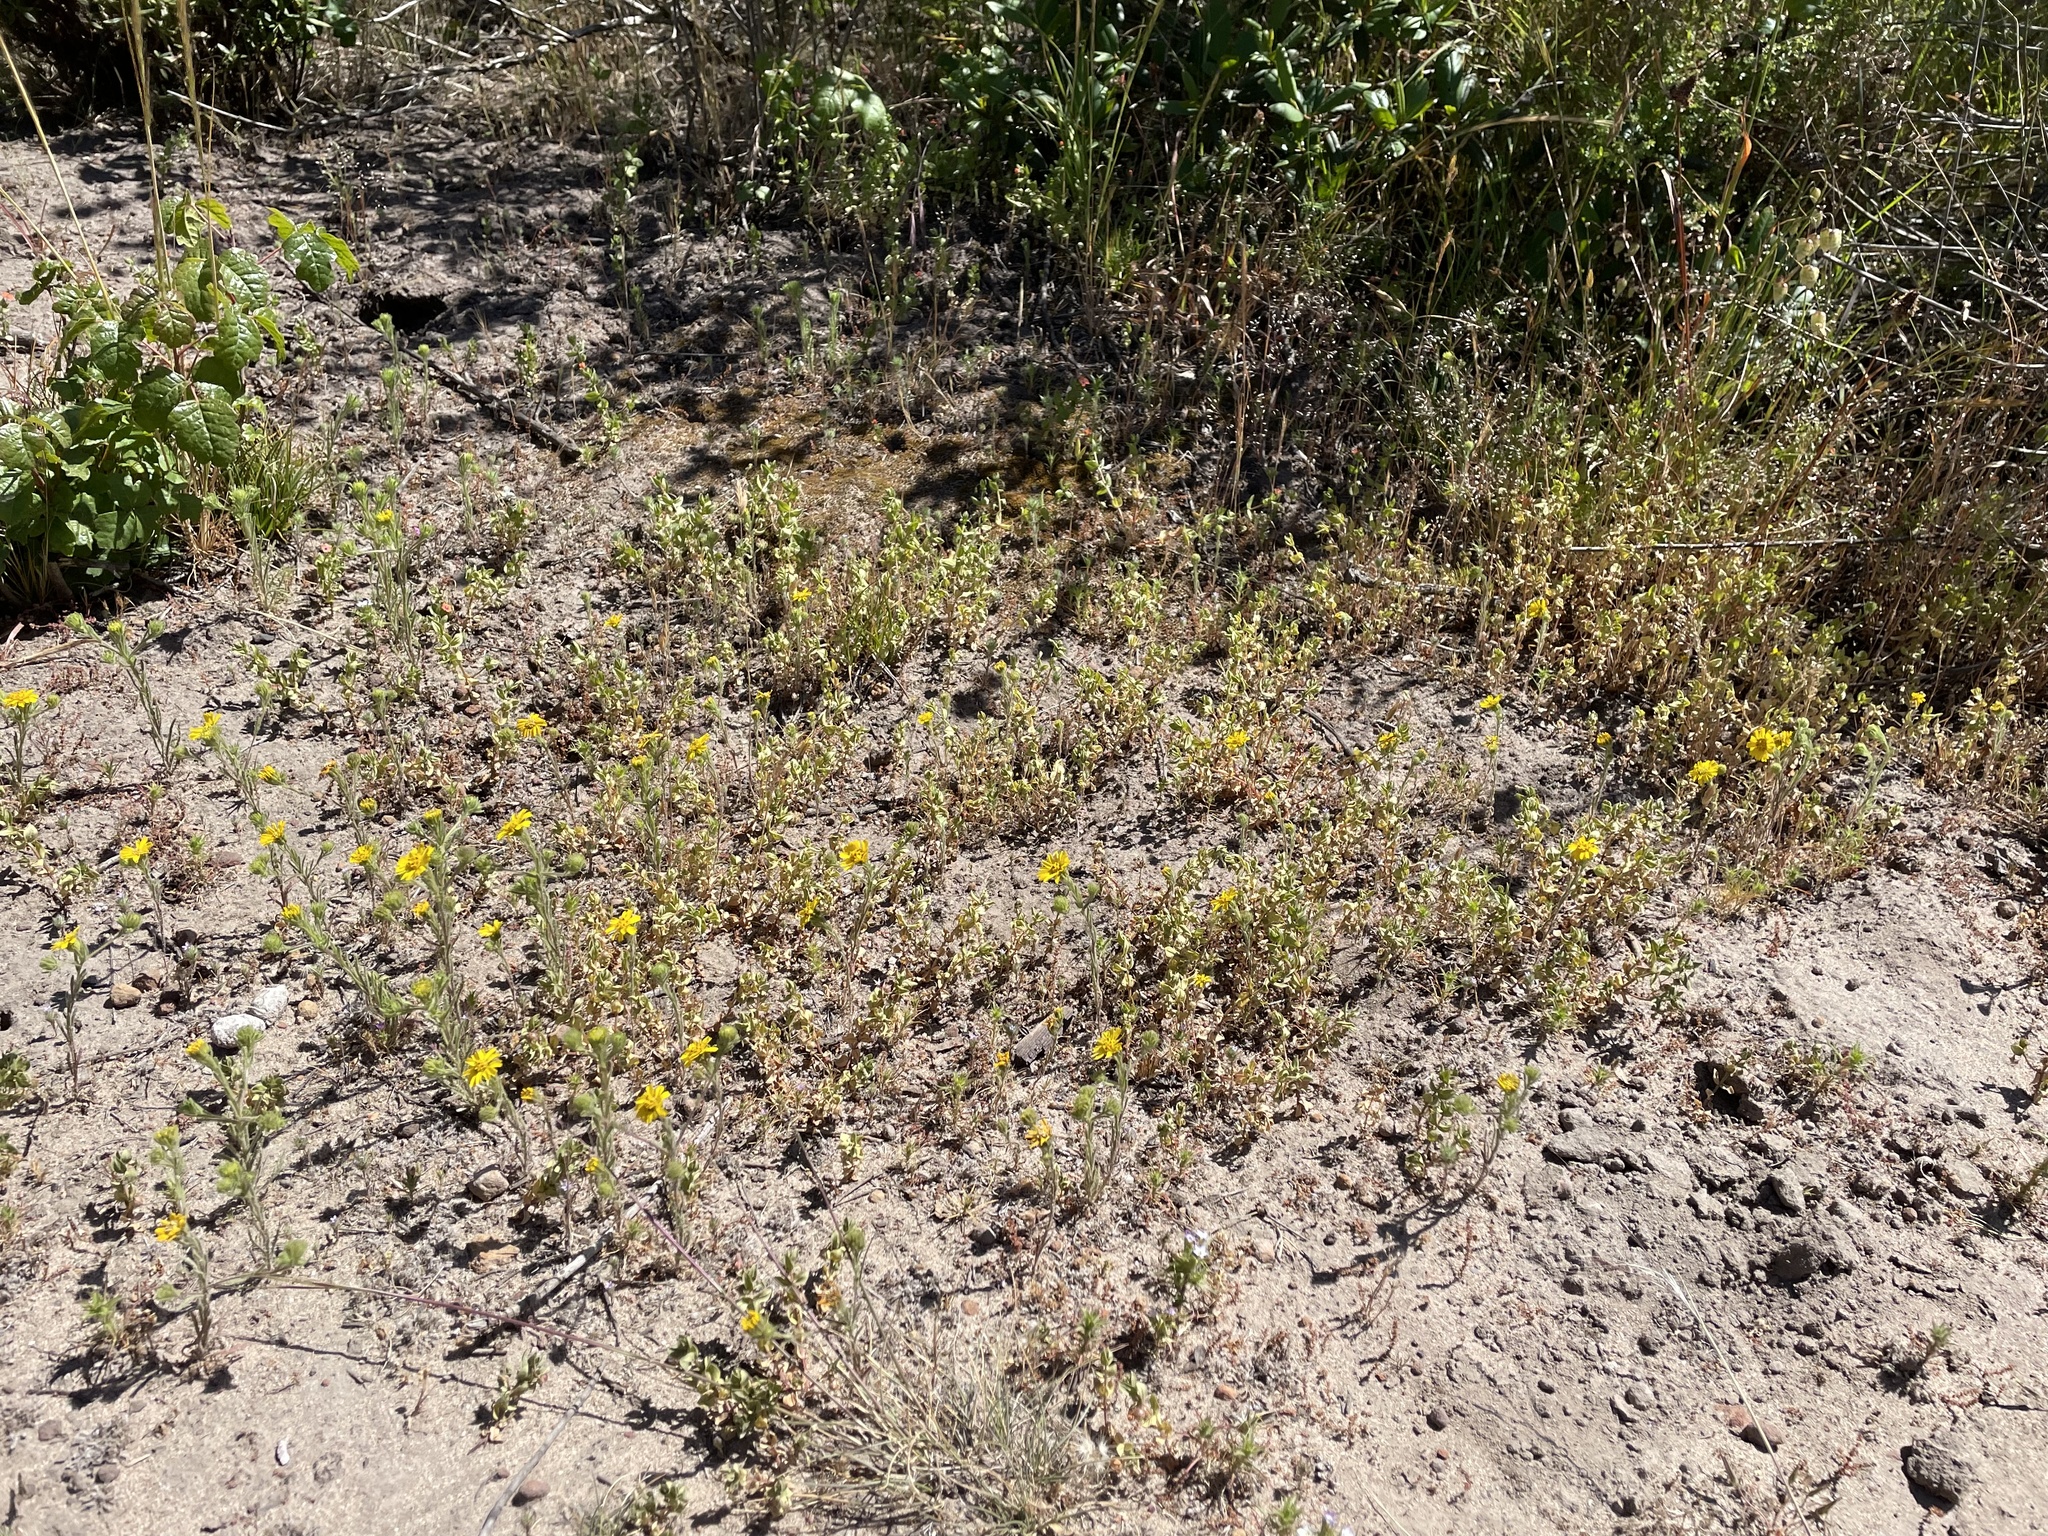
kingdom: Plantae
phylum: Tracheophyta
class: Magnoliopsida
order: Asterales
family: Asteraceae
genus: Deinandra
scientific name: Deinandra corymbosa
